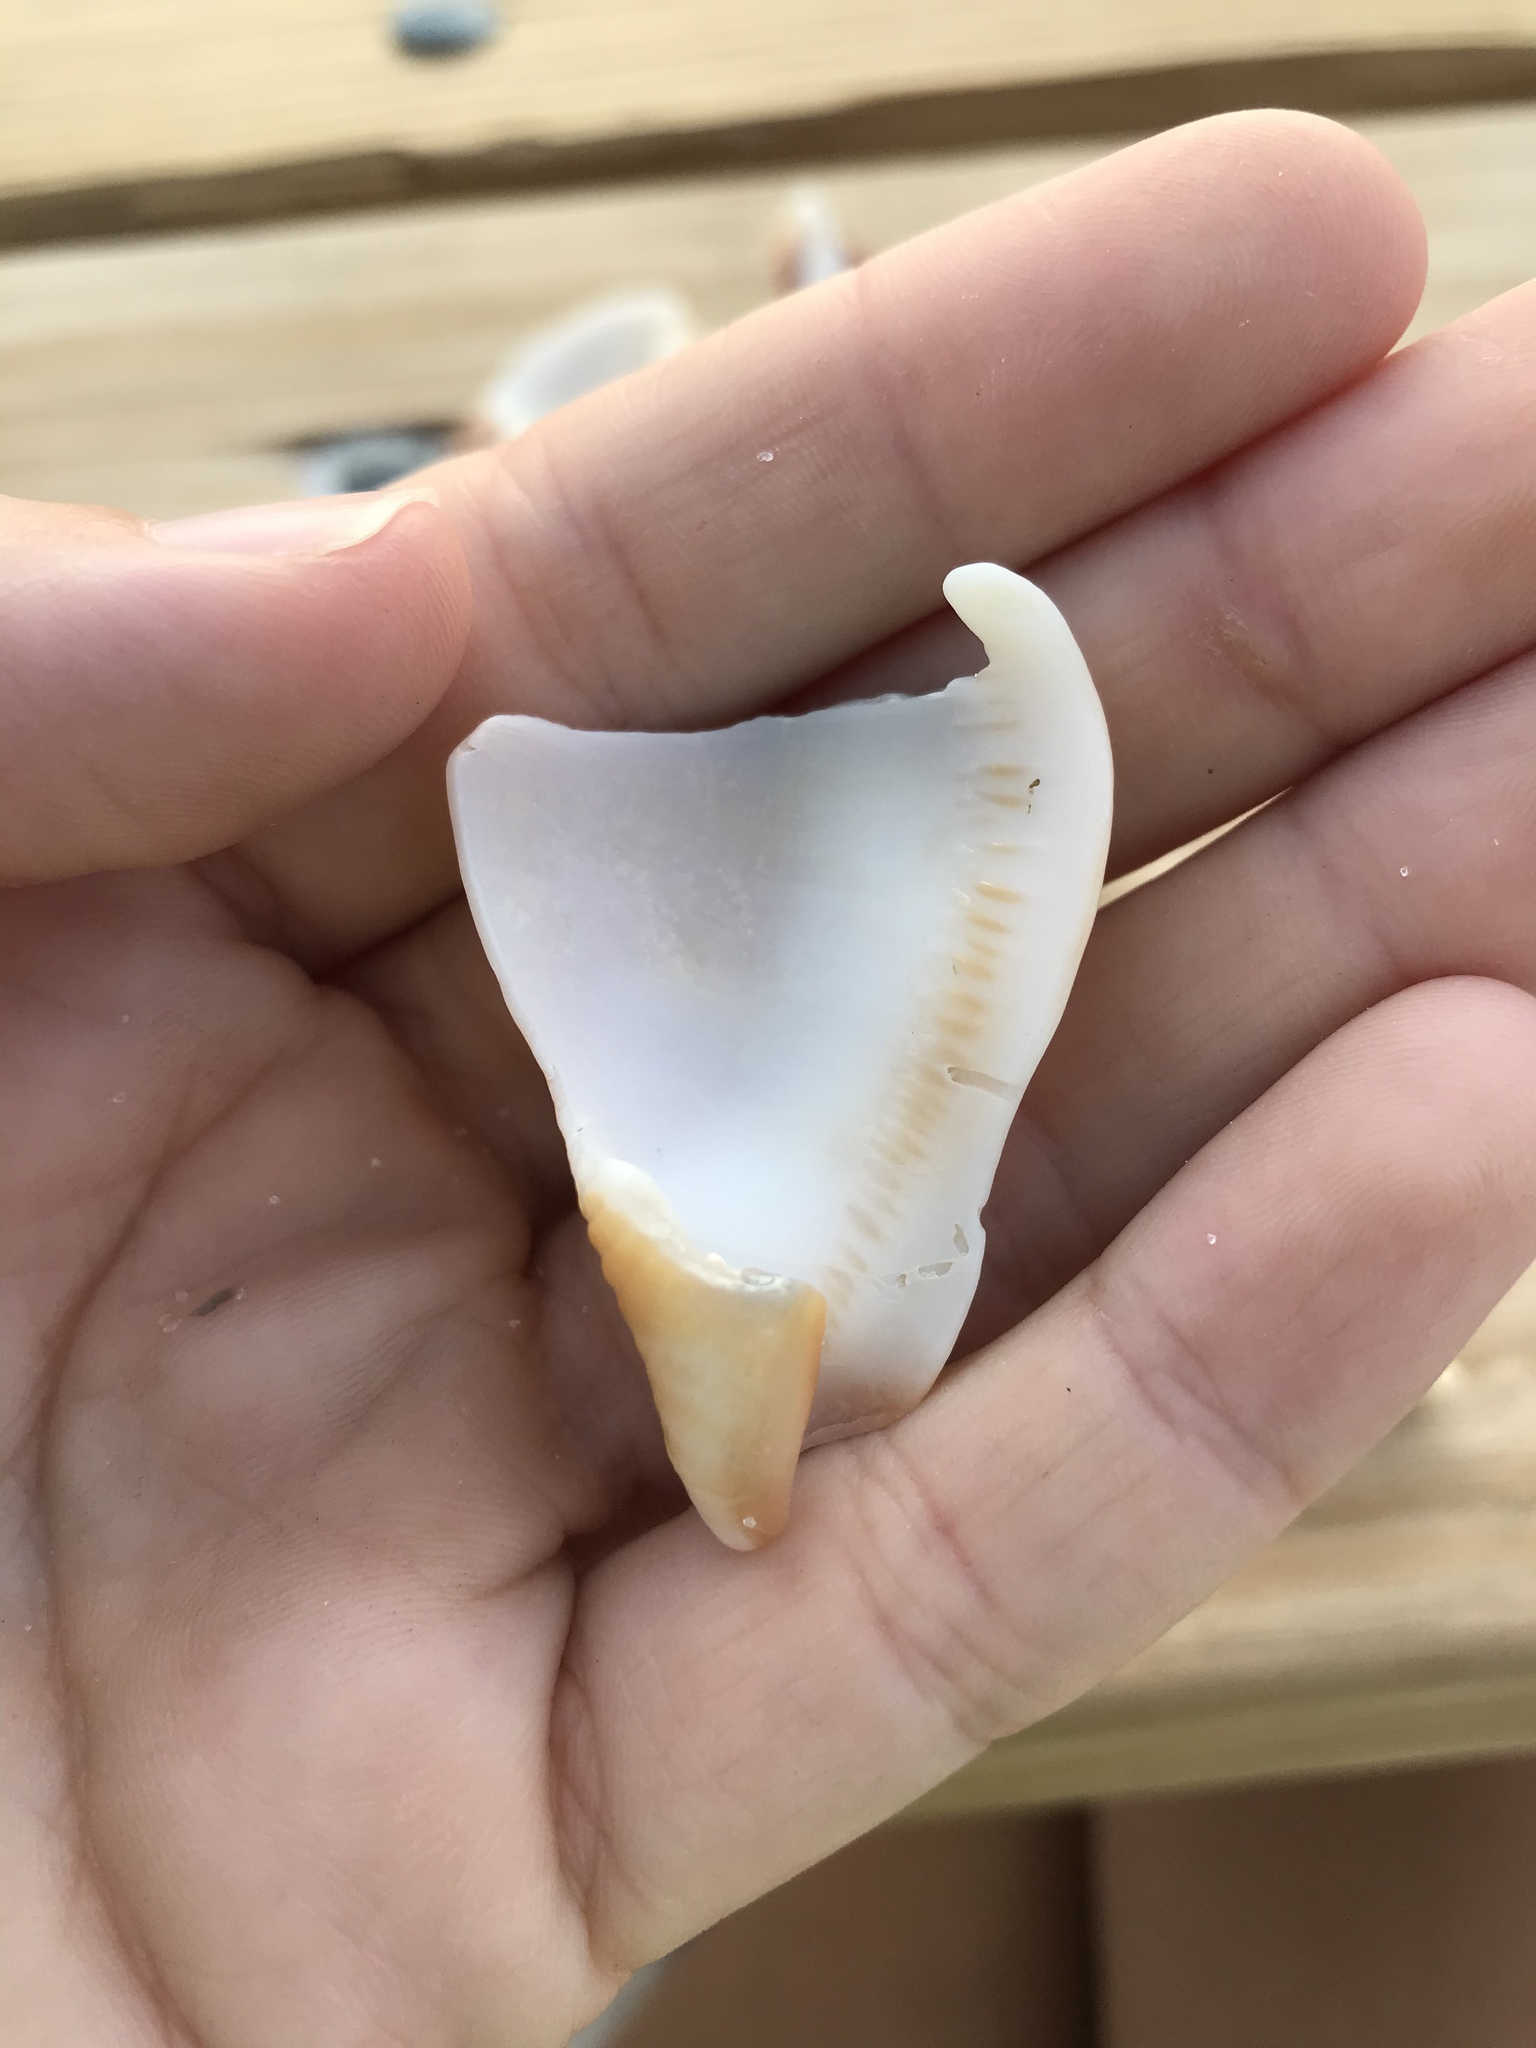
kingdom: Animalia
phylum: Mollusca
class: Gastropoda
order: Littorinimorpha
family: Strombidae
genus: Strombus
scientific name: Strombus alatus
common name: Florida fighting conch
